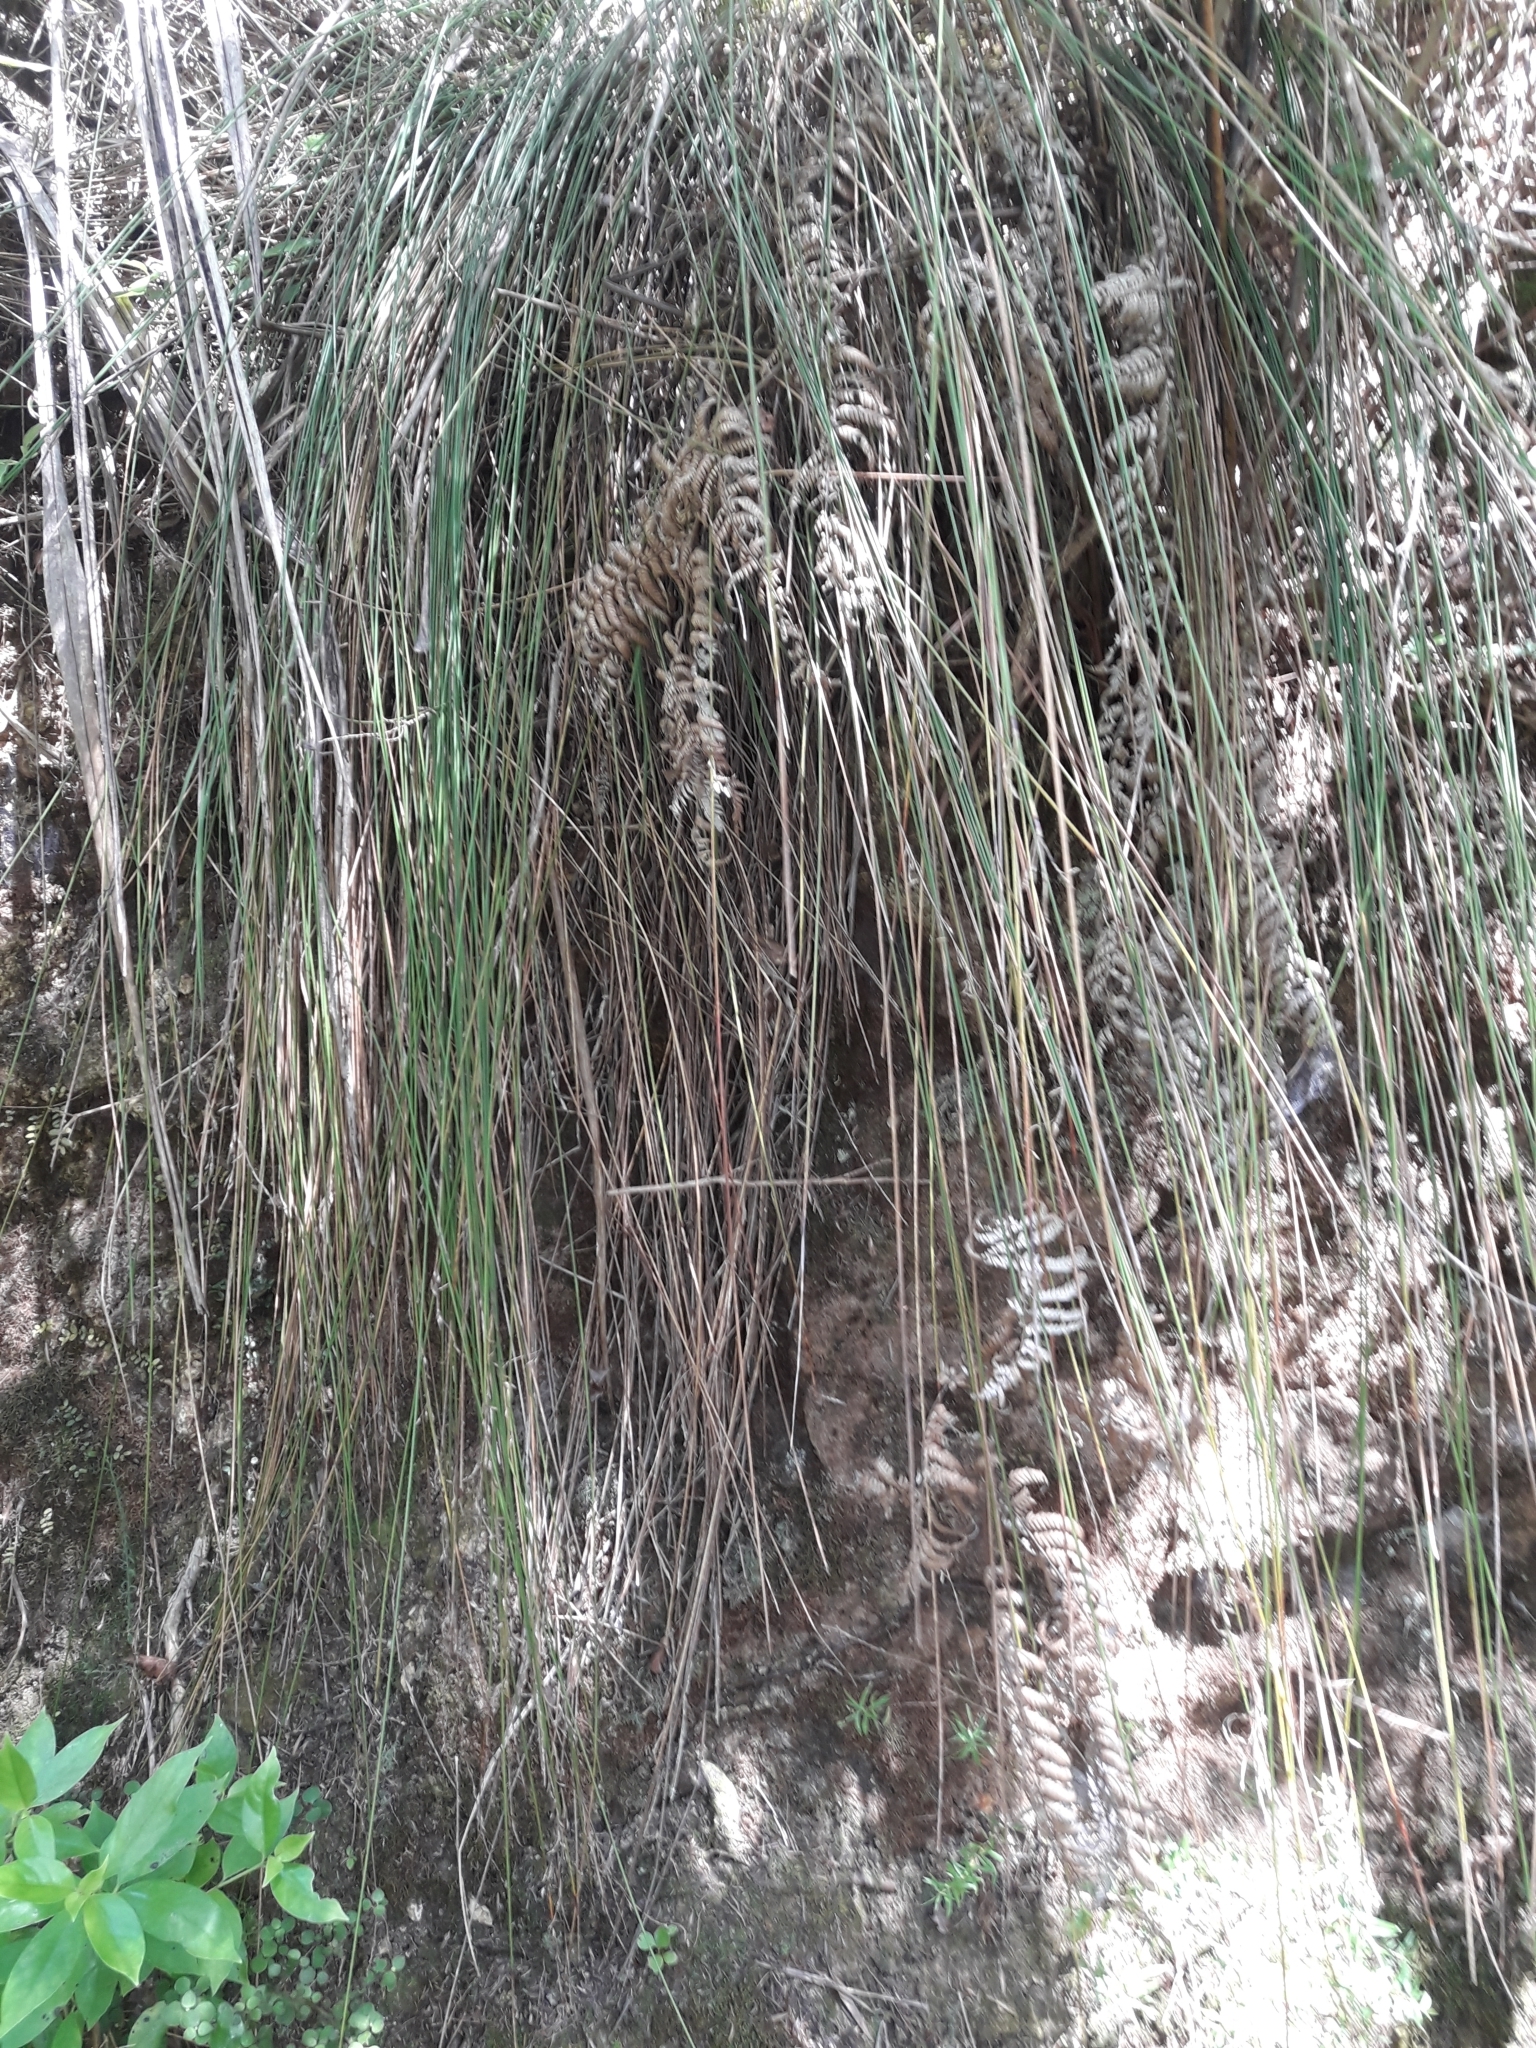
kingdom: Plantae
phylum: Tracheophyta
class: Liliopsida
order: Poales
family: Cyperaceae
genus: Schoenus
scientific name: Schoenus tendo
